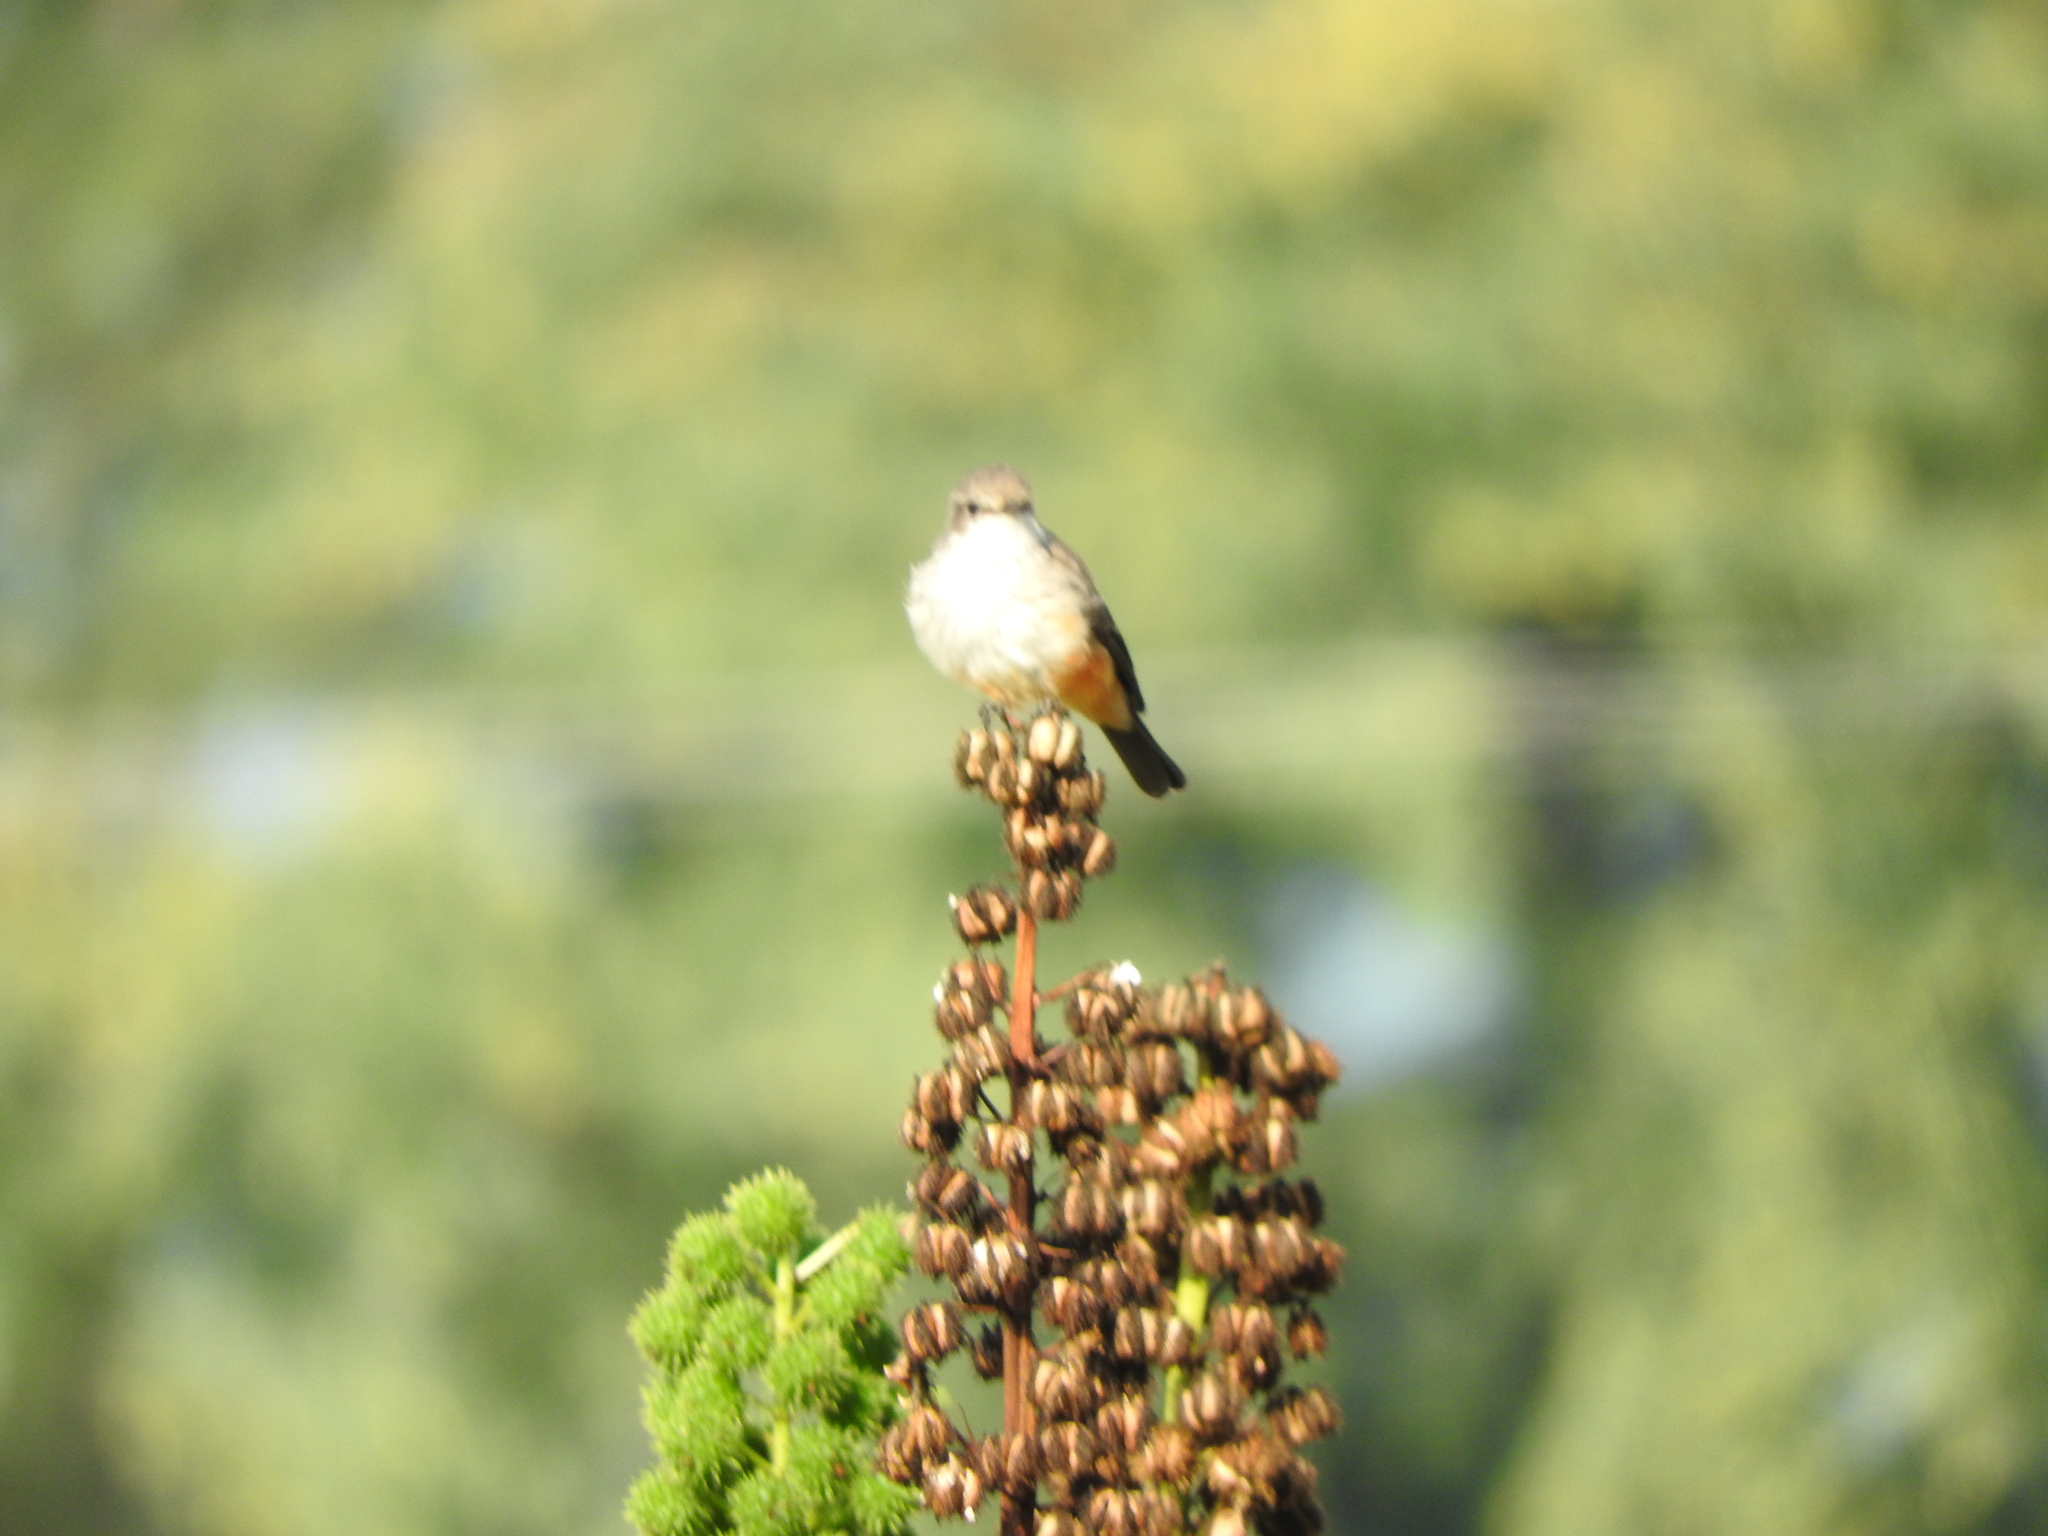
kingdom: Animalia
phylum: Chordata
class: Aves
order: Passeriformes
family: Tyrannidae
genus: Pyrocephalus
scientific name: Pyrocephalus rubinus
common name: Vermilion flycatcher
